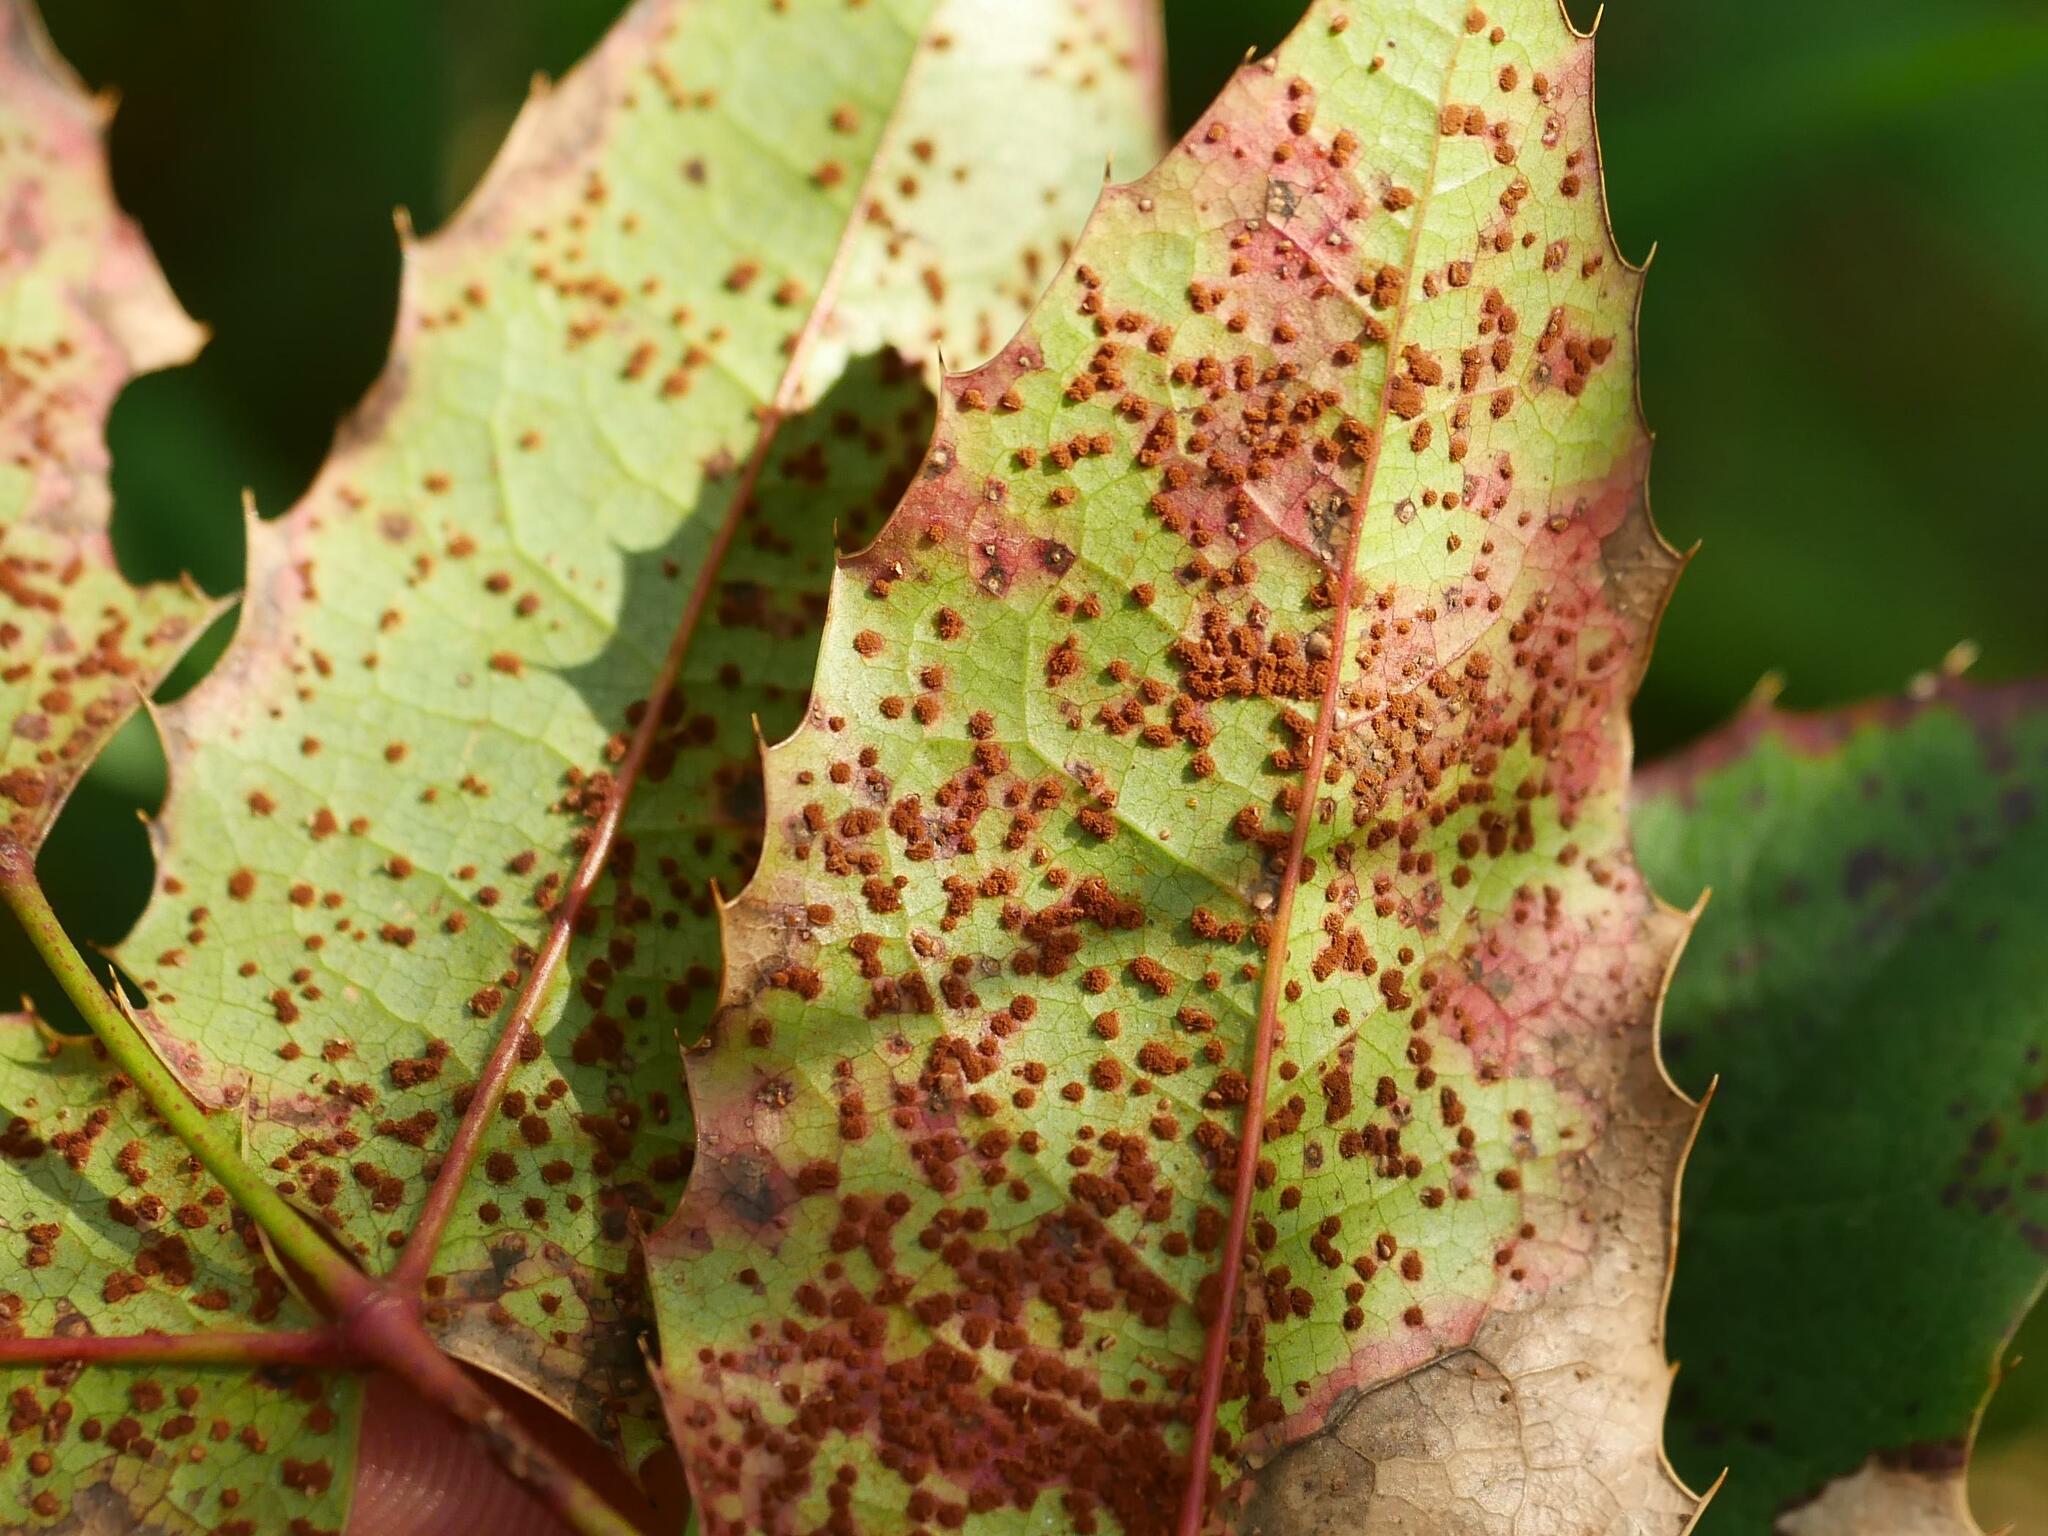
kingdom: Fungi
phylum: Basidiomycota
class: Pucciniomycetes
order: Pucciniales
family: Pucciniaceae
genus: Cumminsiella
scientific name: Cumminsiella mirabilissima
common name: Mahonia rust
